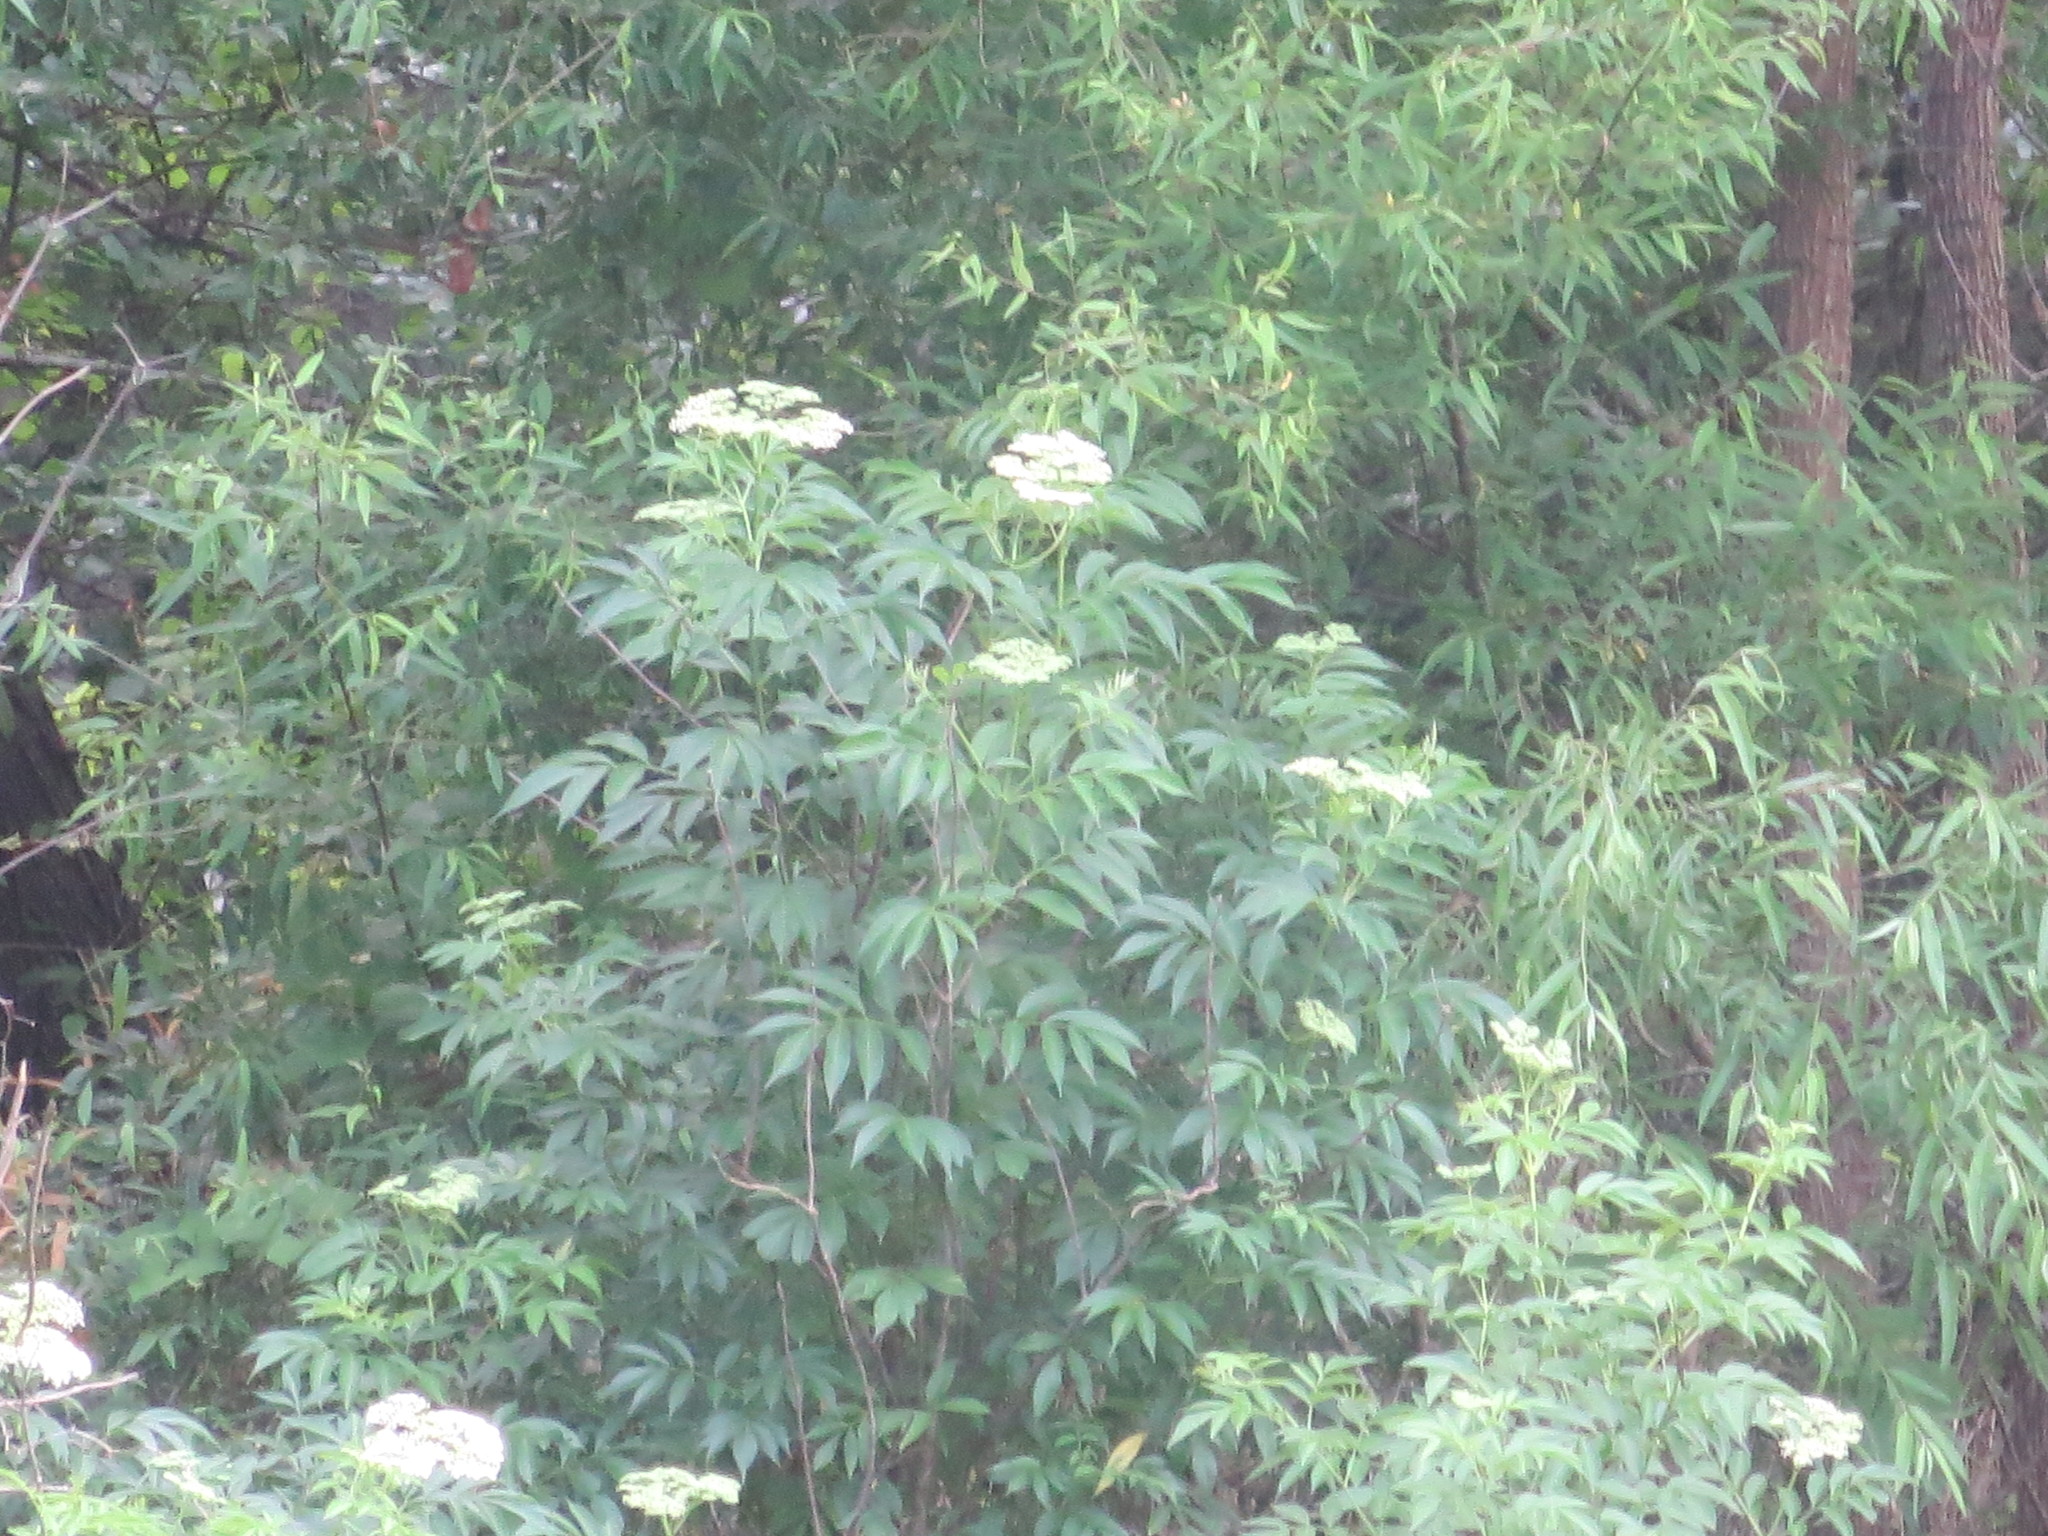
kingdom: Plantae
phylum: Tracheophyta
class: Magnoliopsida
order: Dipsacales
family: Viburnaceae
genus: Sambucus
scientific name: Sambucus canadensis
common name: American elder
